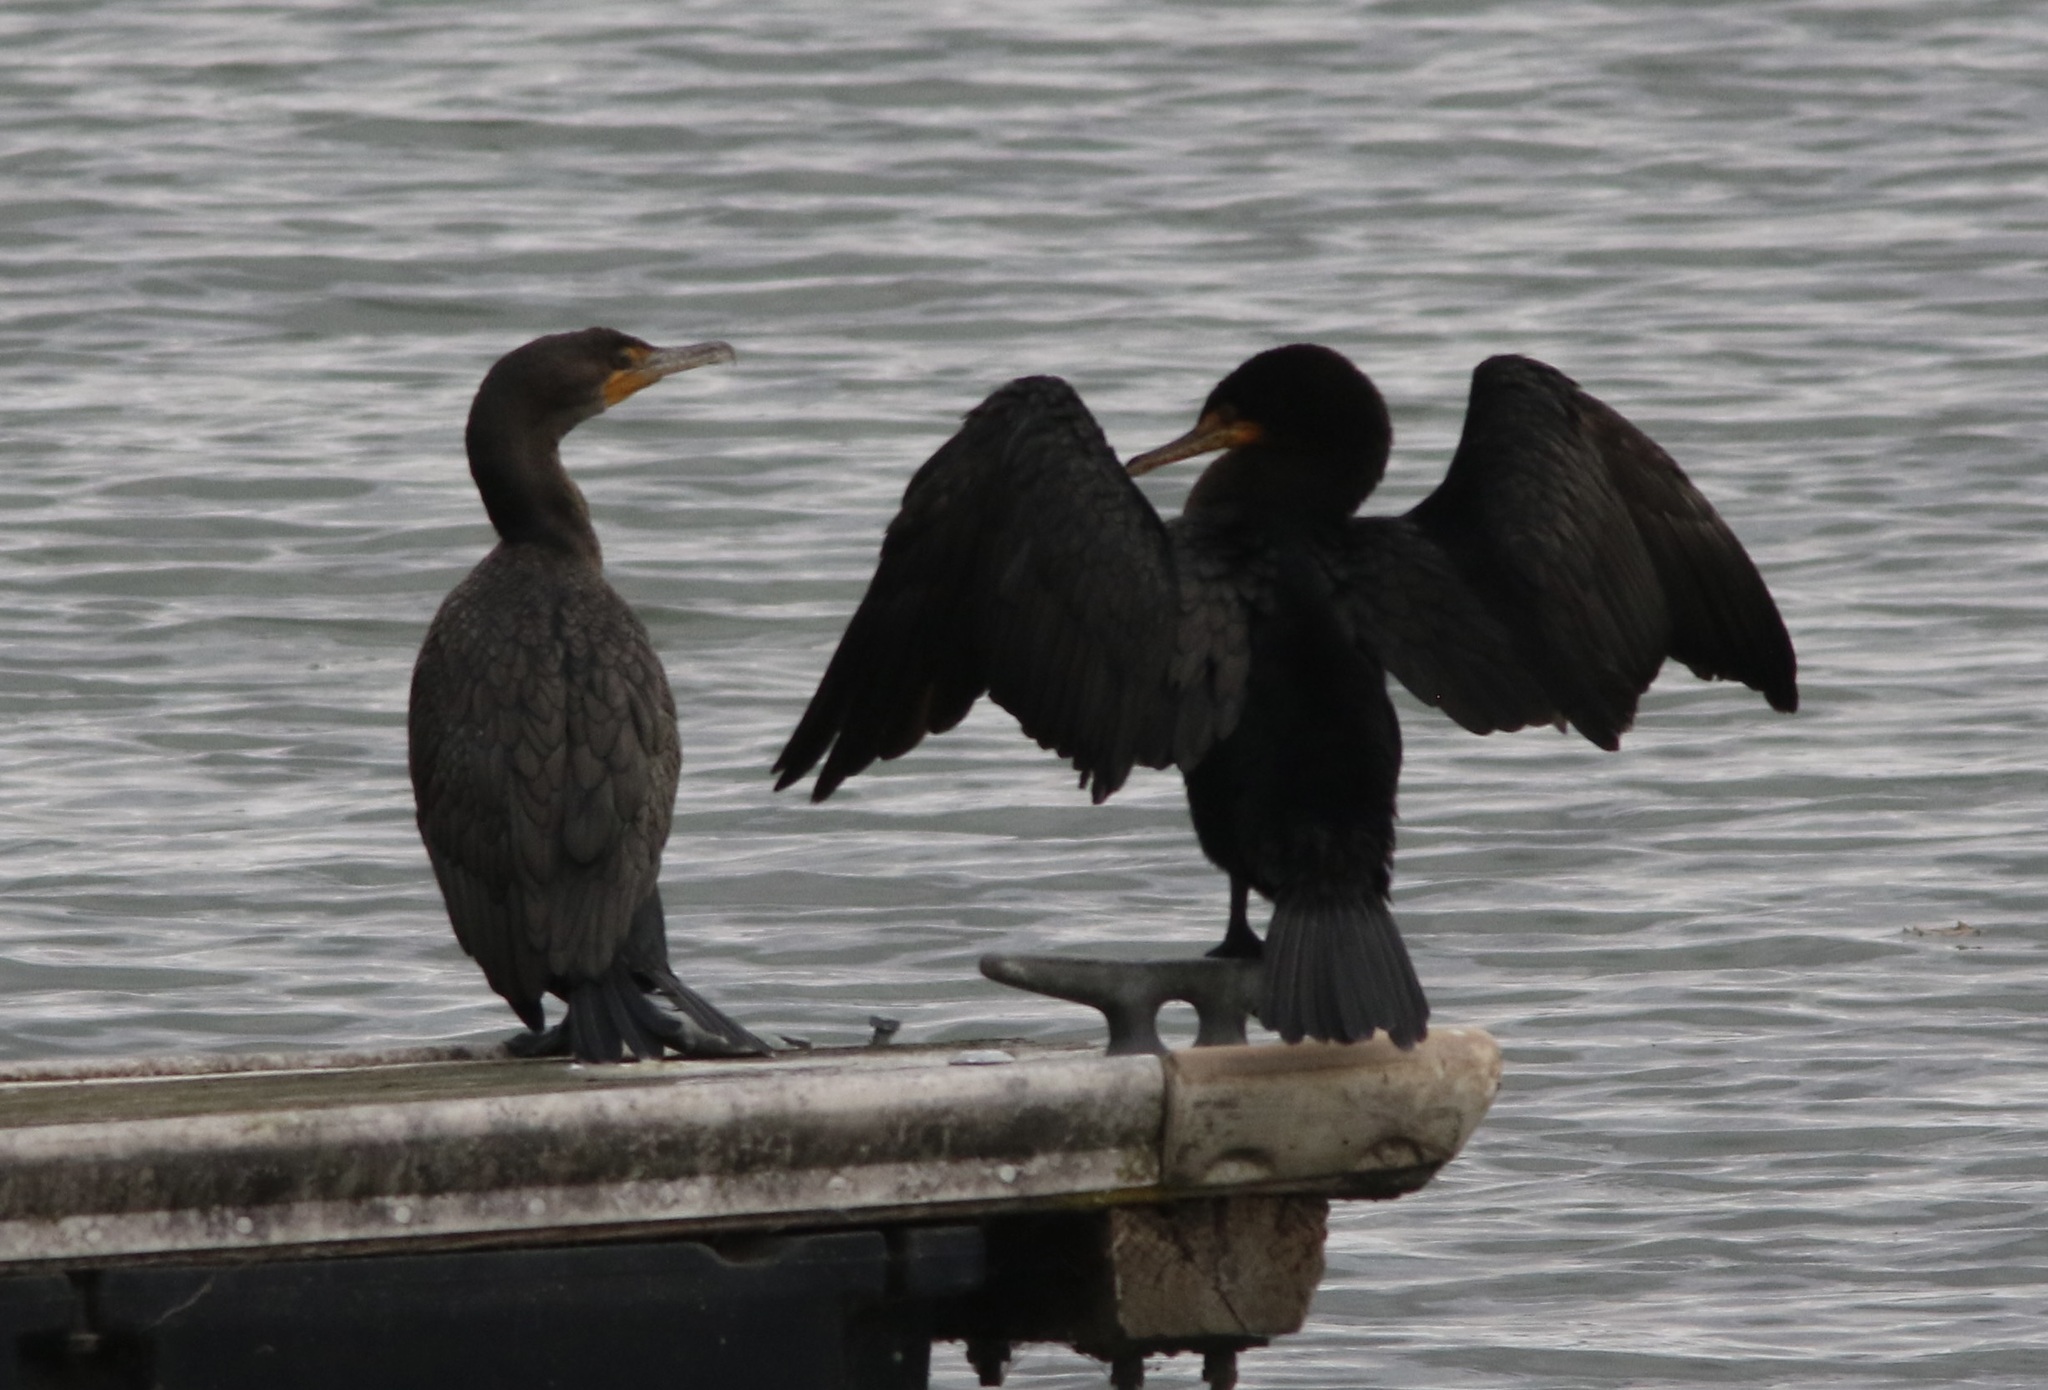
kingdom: Animalia
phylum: Chordata
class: Aves
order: Suliformes
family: Phalacrocoracidae
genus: Phalacrocorax
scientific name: Phalacrocorax auritus
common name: Double-crested cormorant
